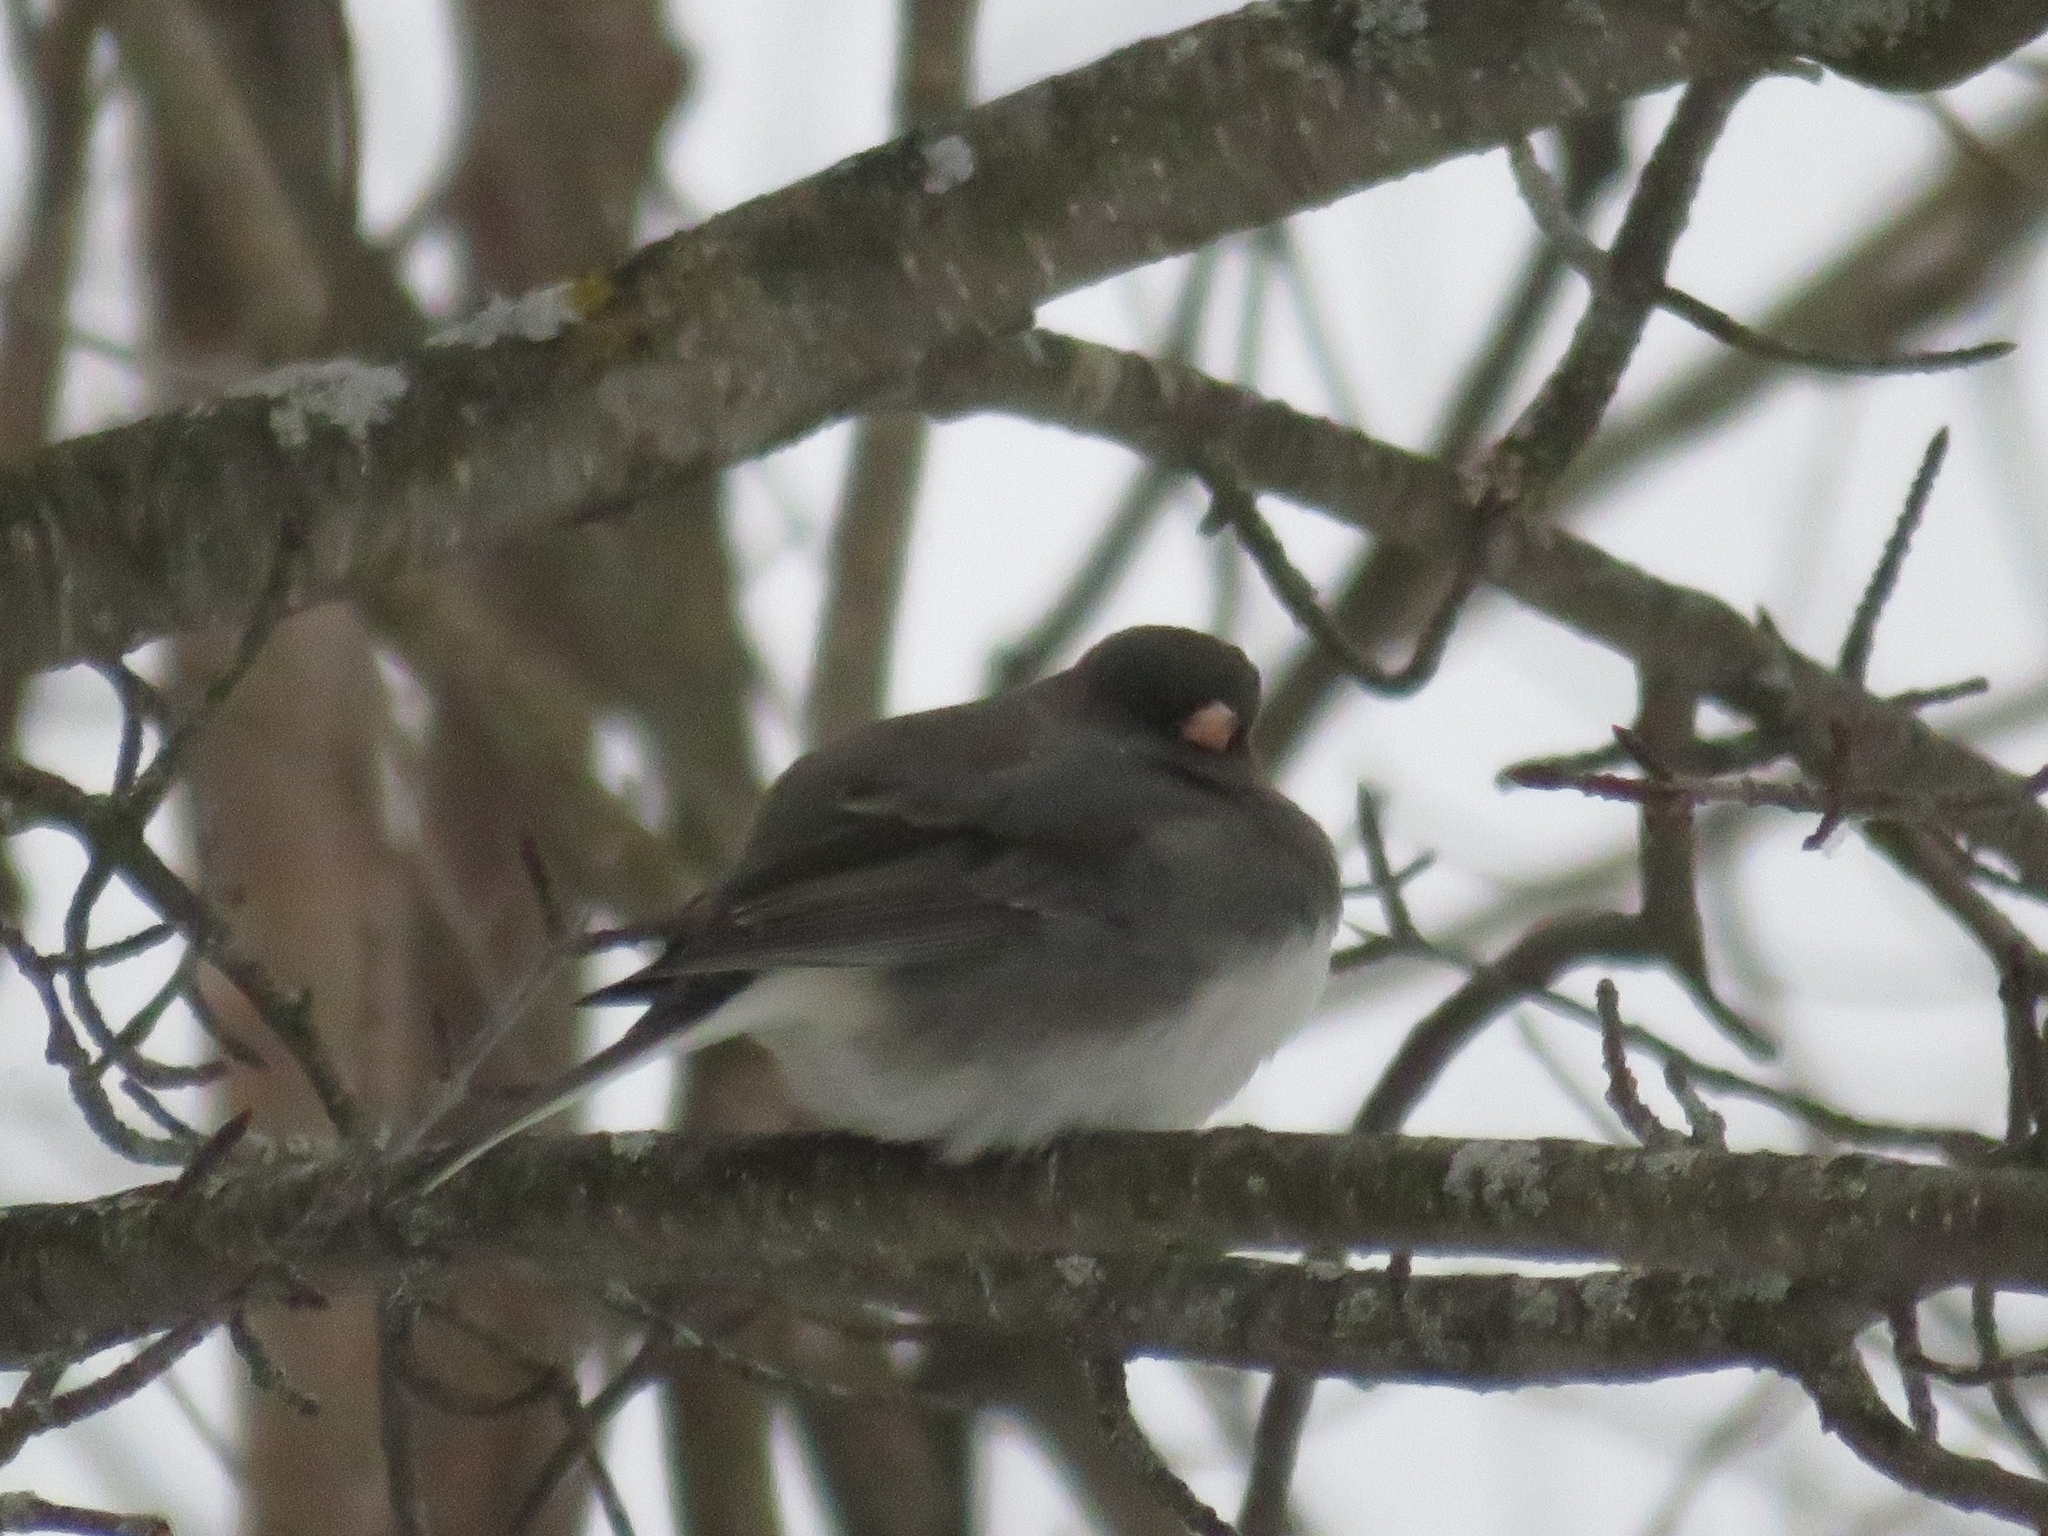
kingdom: Animalia
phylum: Chordata
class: Aves
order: Passeriformes
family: Passerellidae
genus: Junco
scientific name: Junco hyemalis
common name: Dark-eyed junco
